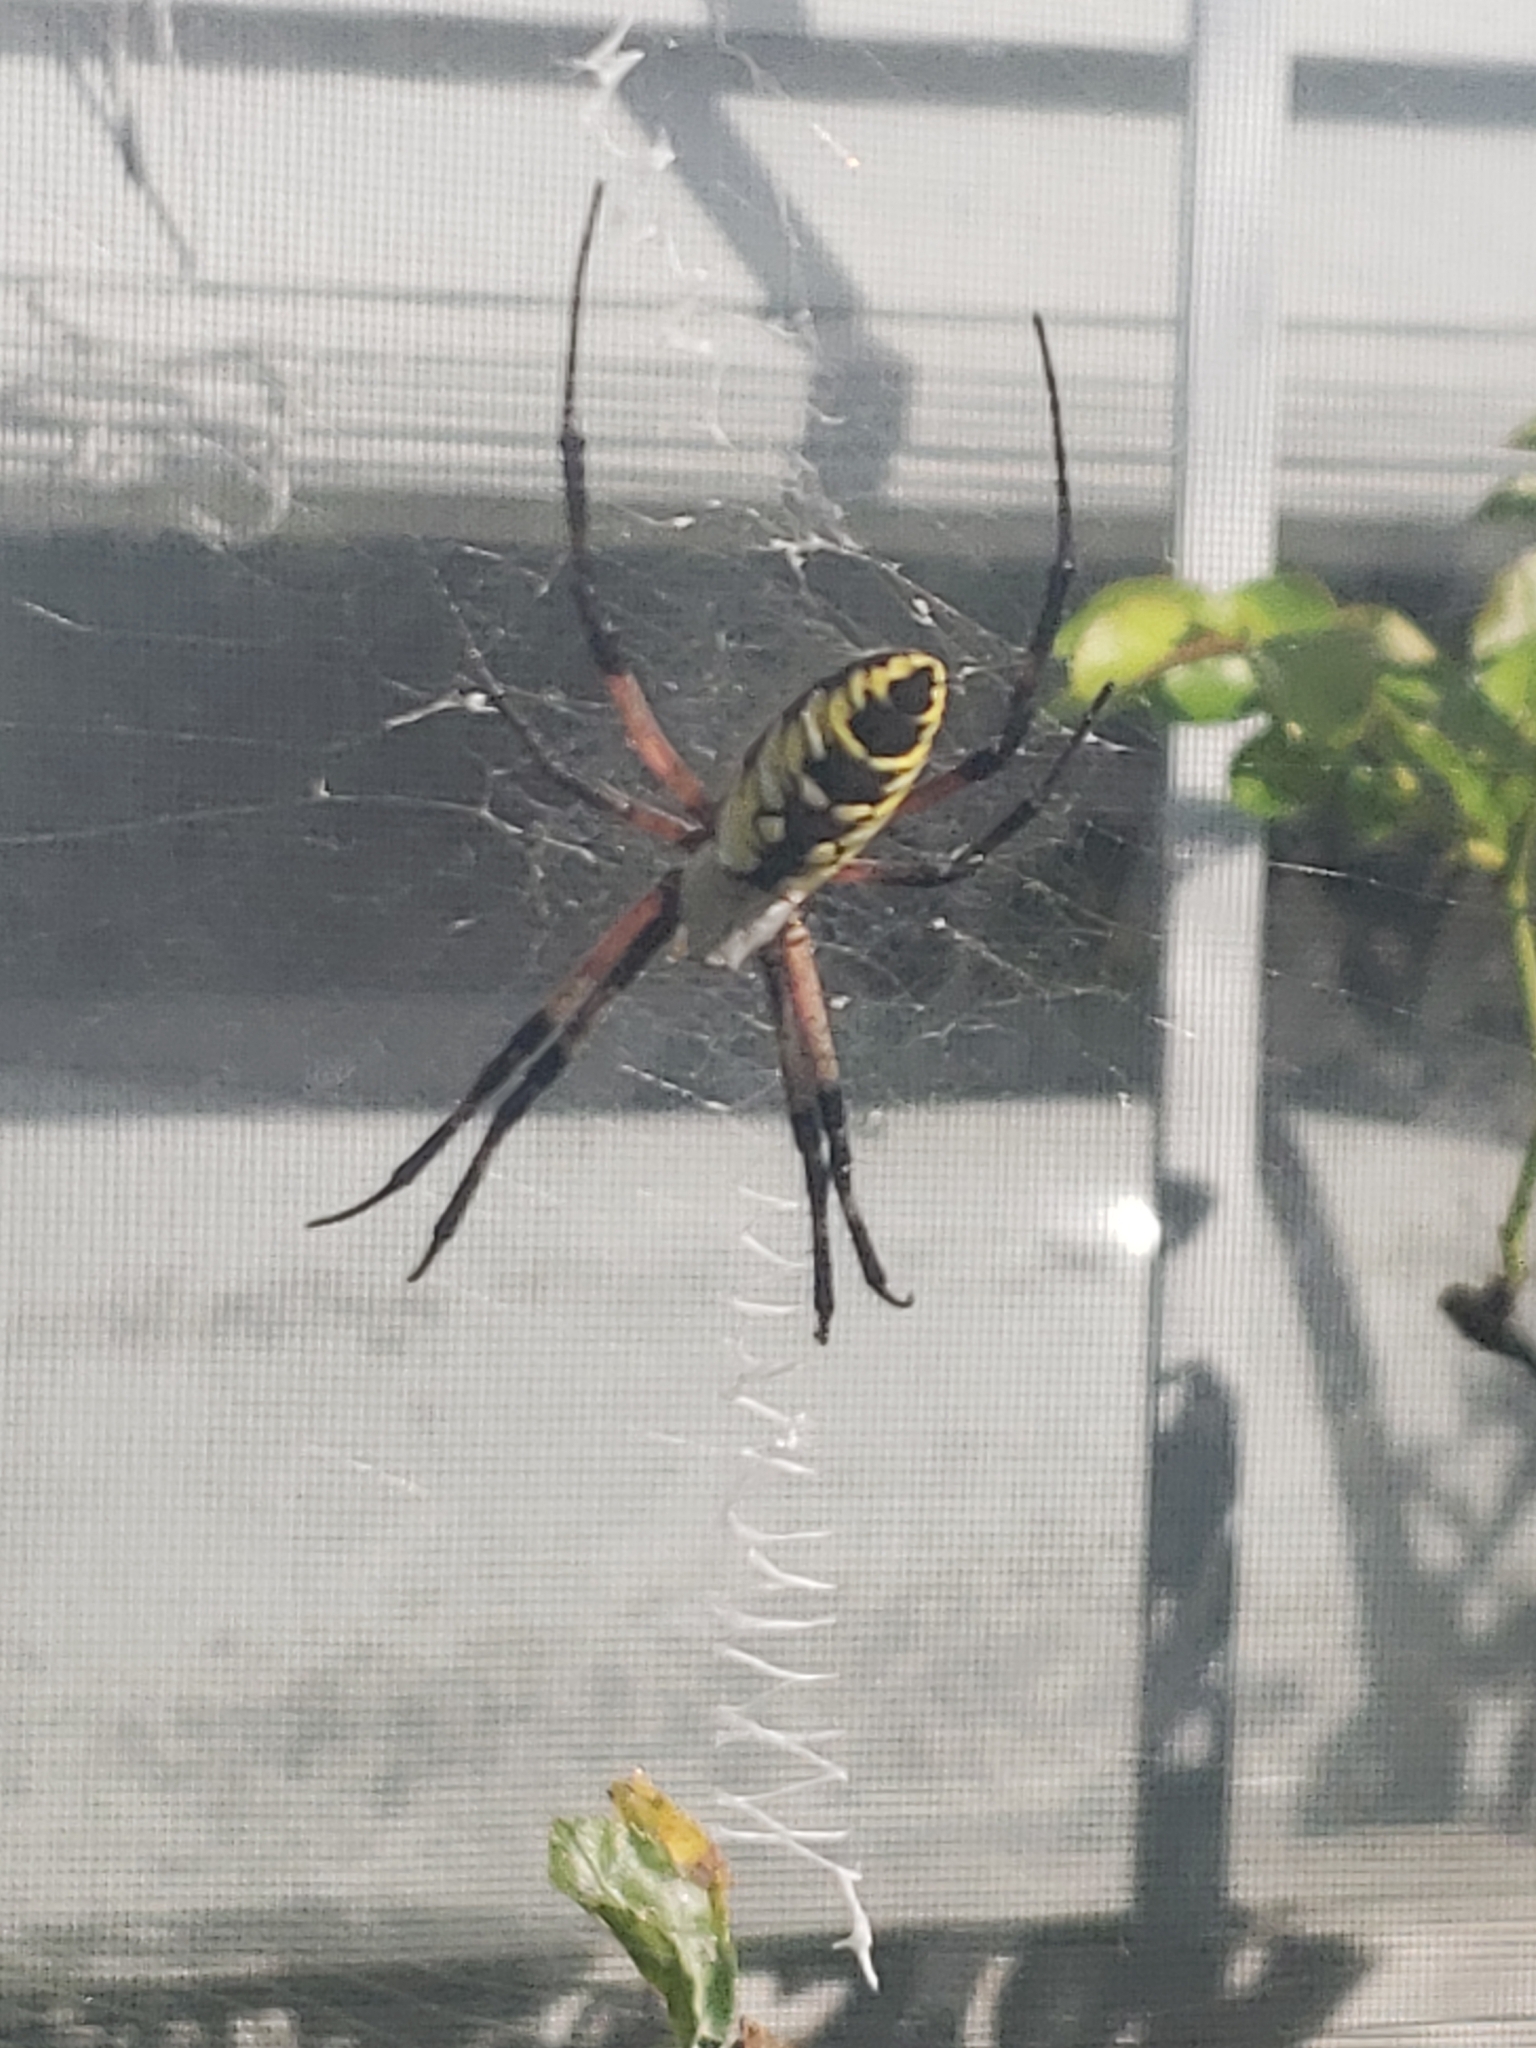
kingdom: Animalia
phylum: Arthropoda
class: Arachnida
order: Araneae
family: Araneidae
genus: Argiope
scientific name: Argiope aurantia
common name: Orb weavers
